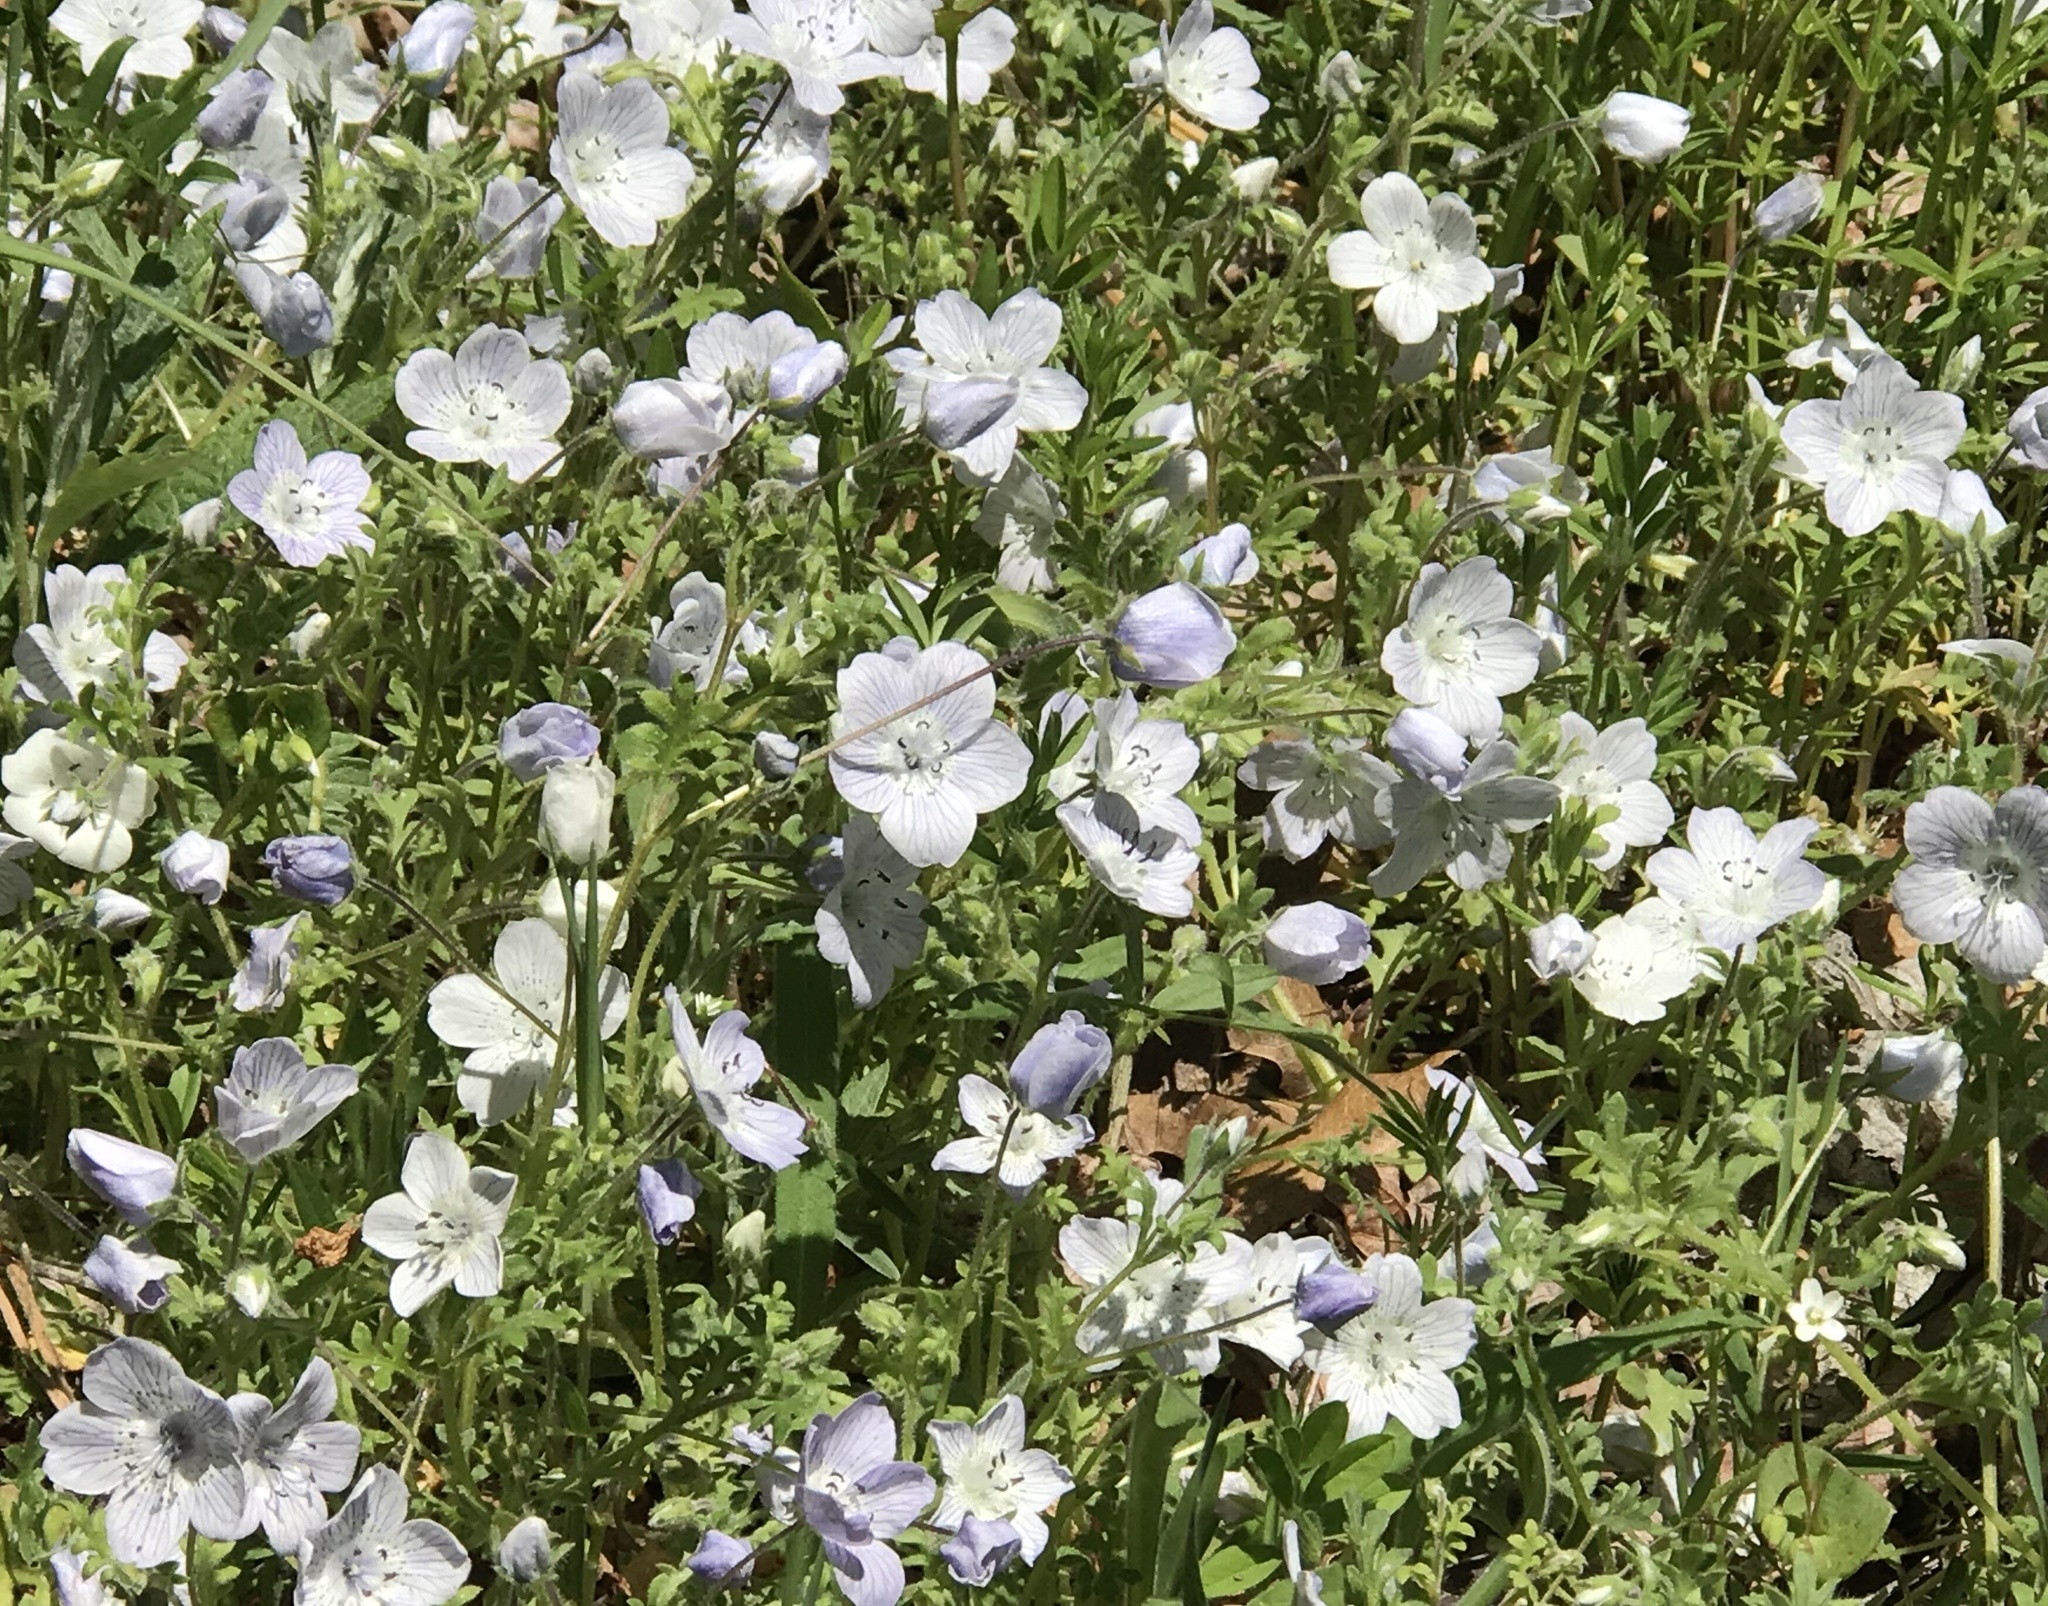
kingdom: Plantae
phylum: Tracheophyta
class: Magnoliopsida
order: Boraginales
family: Hydrophyllaceae
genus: Nemophila
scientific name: Nemophila menziesii
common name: Baby's-blue-eyes
